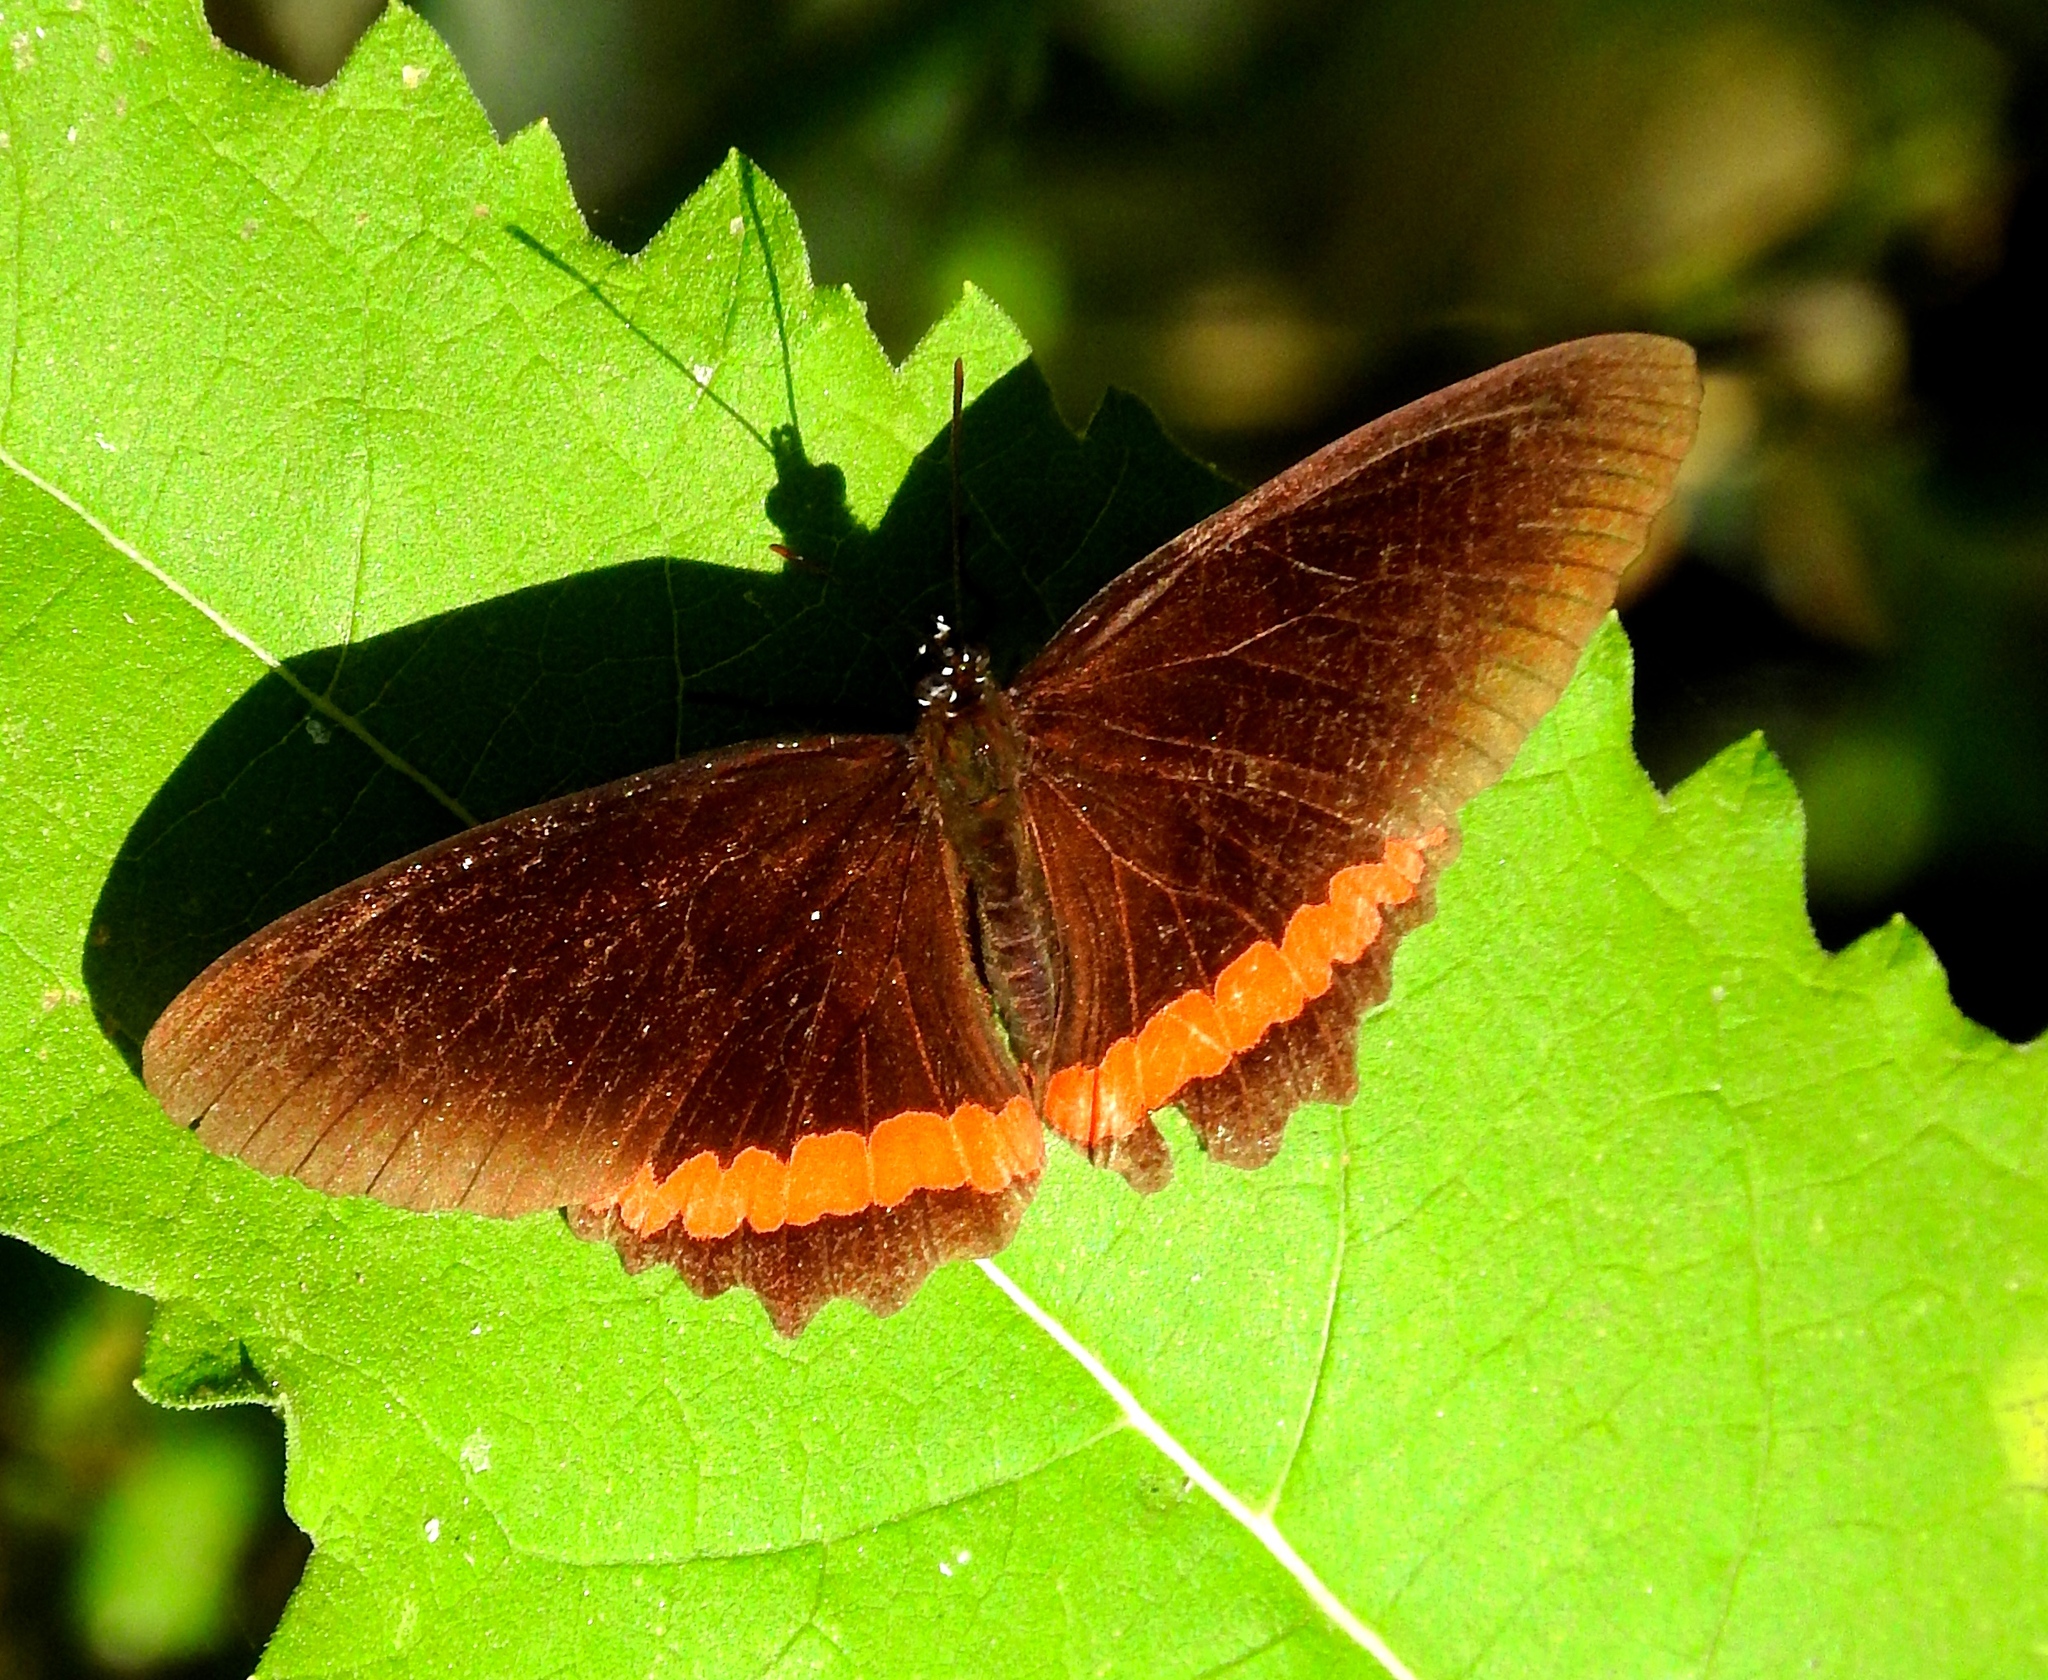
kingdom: Animalia
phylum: Arthropoda
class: Insecta
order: Lepidoptera
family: Nymphalidae
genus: Biblis
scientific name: Biblis aganisa
